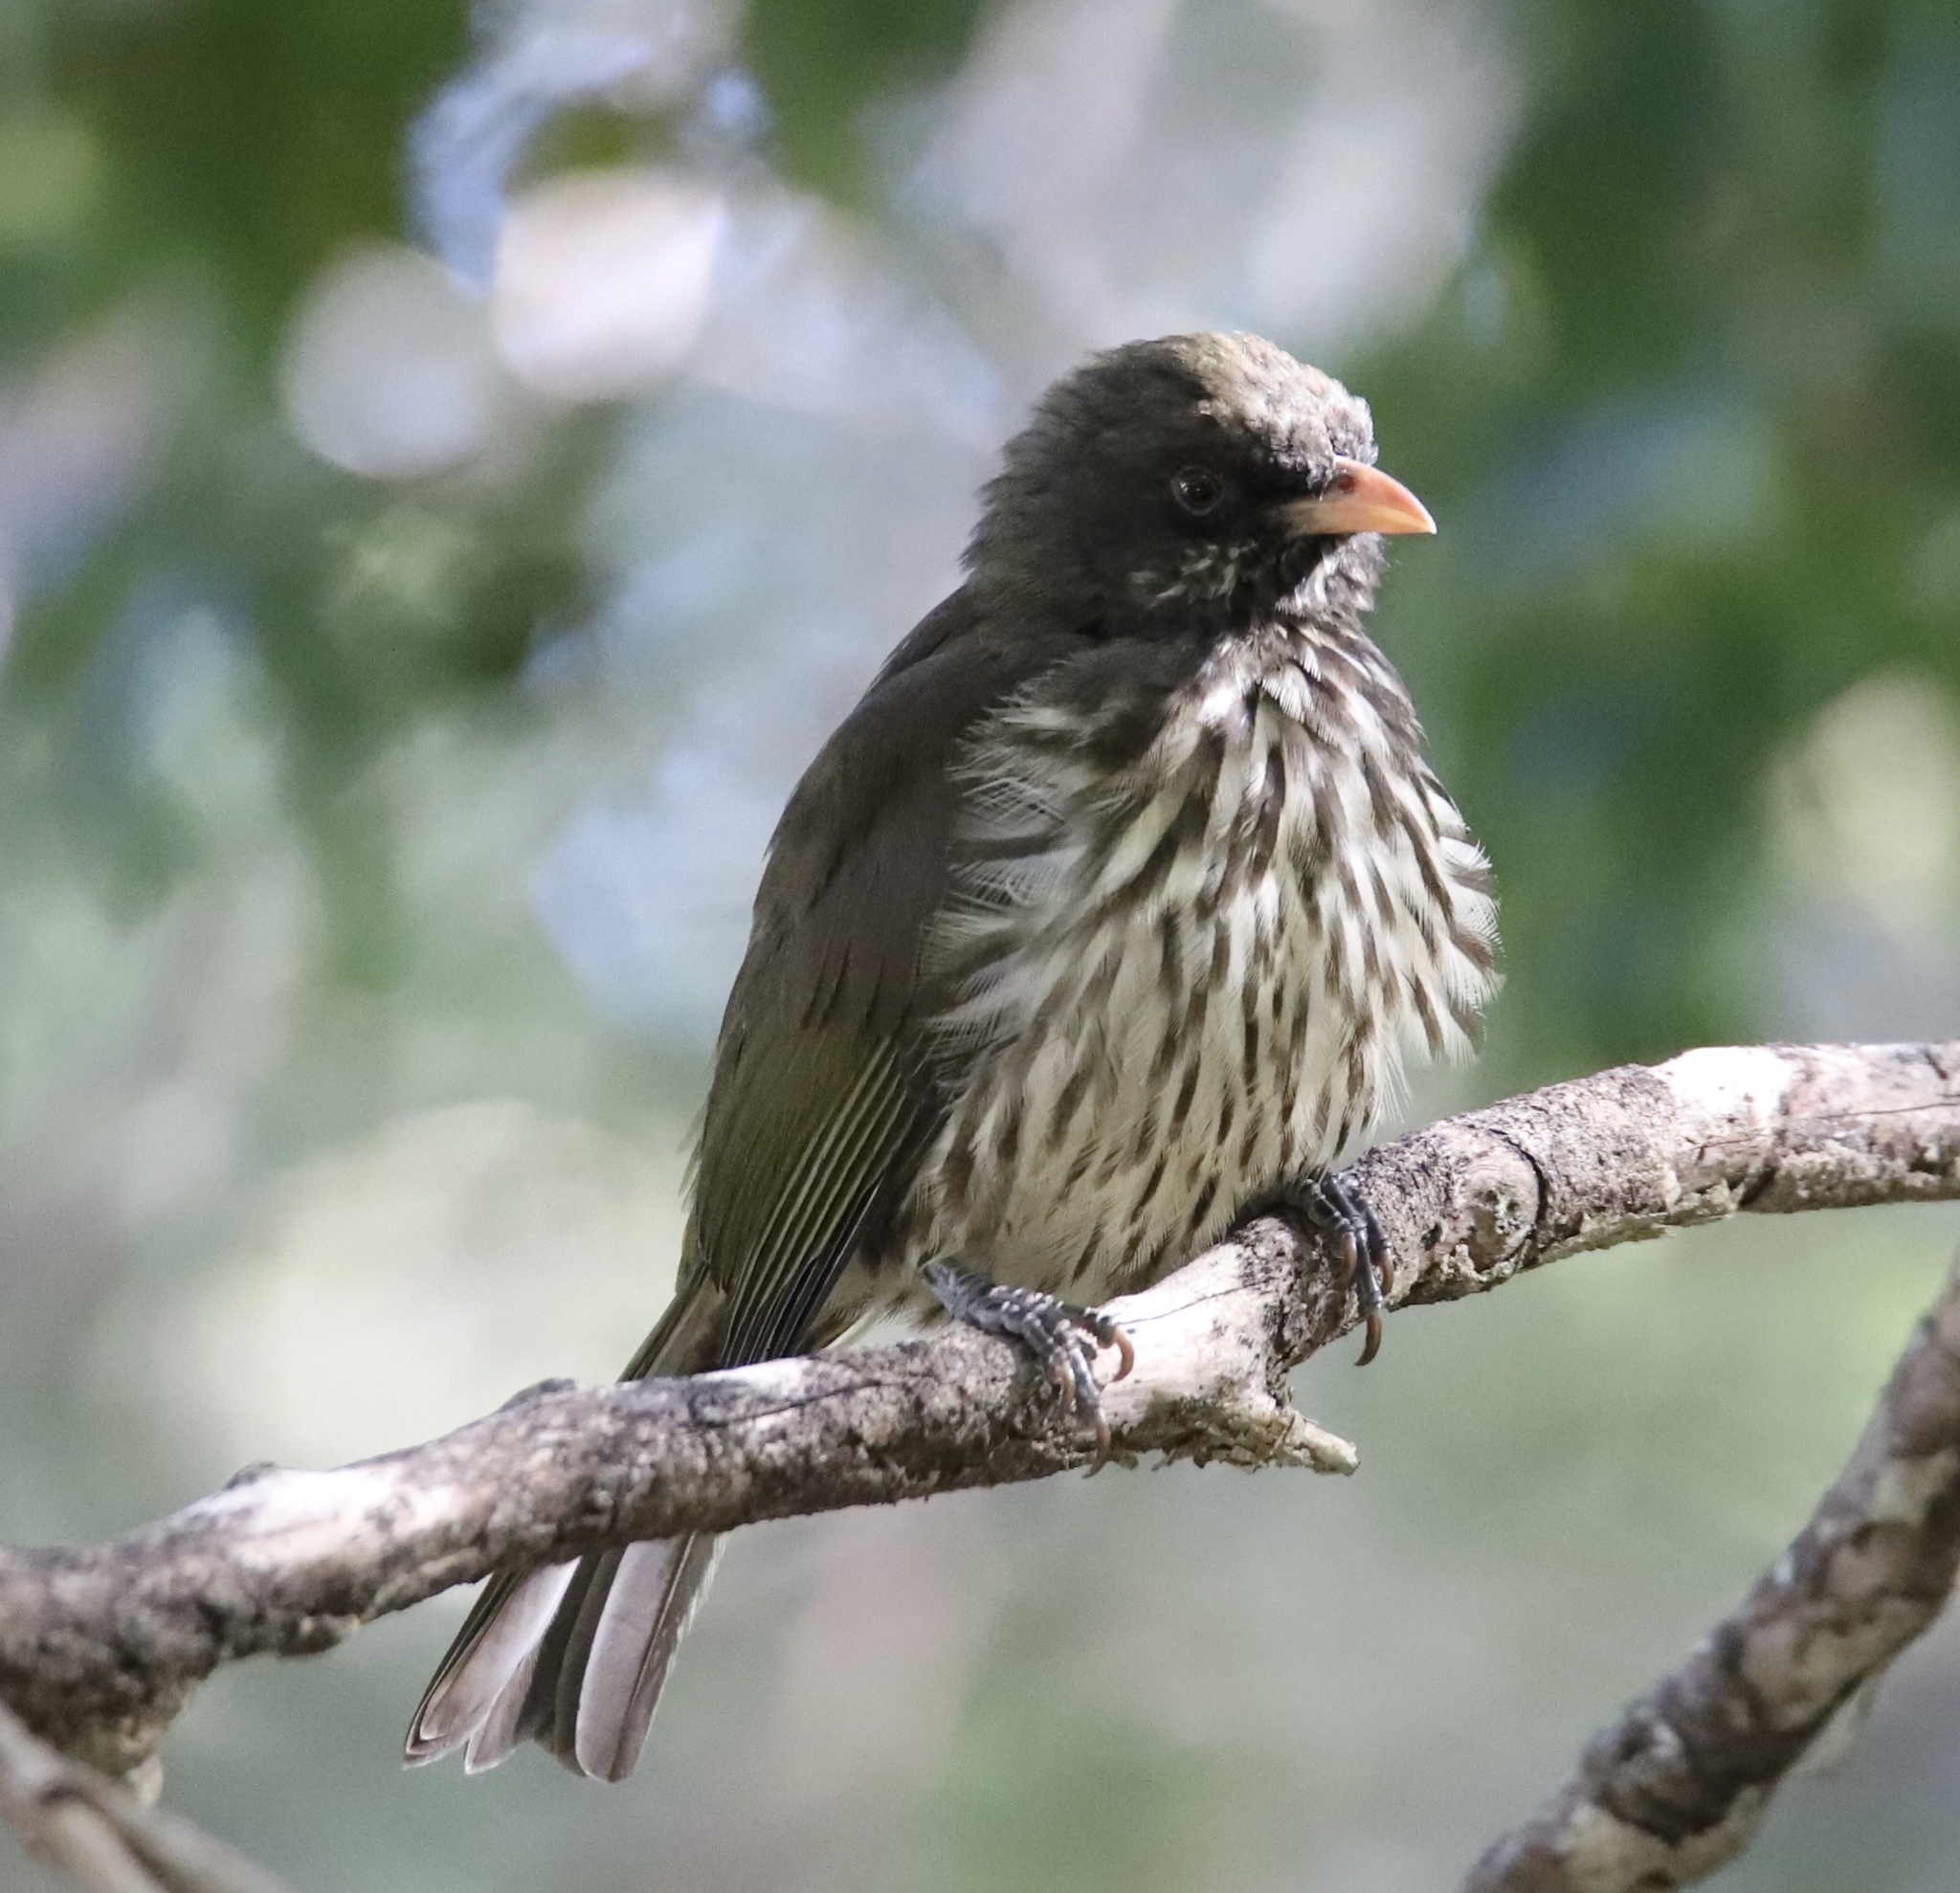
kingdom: Animalia
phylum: Chordata
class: Aves
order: Passeriformes
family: Dulidae
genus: Dulus
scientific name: Dulus dominicus
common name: Palmchat
